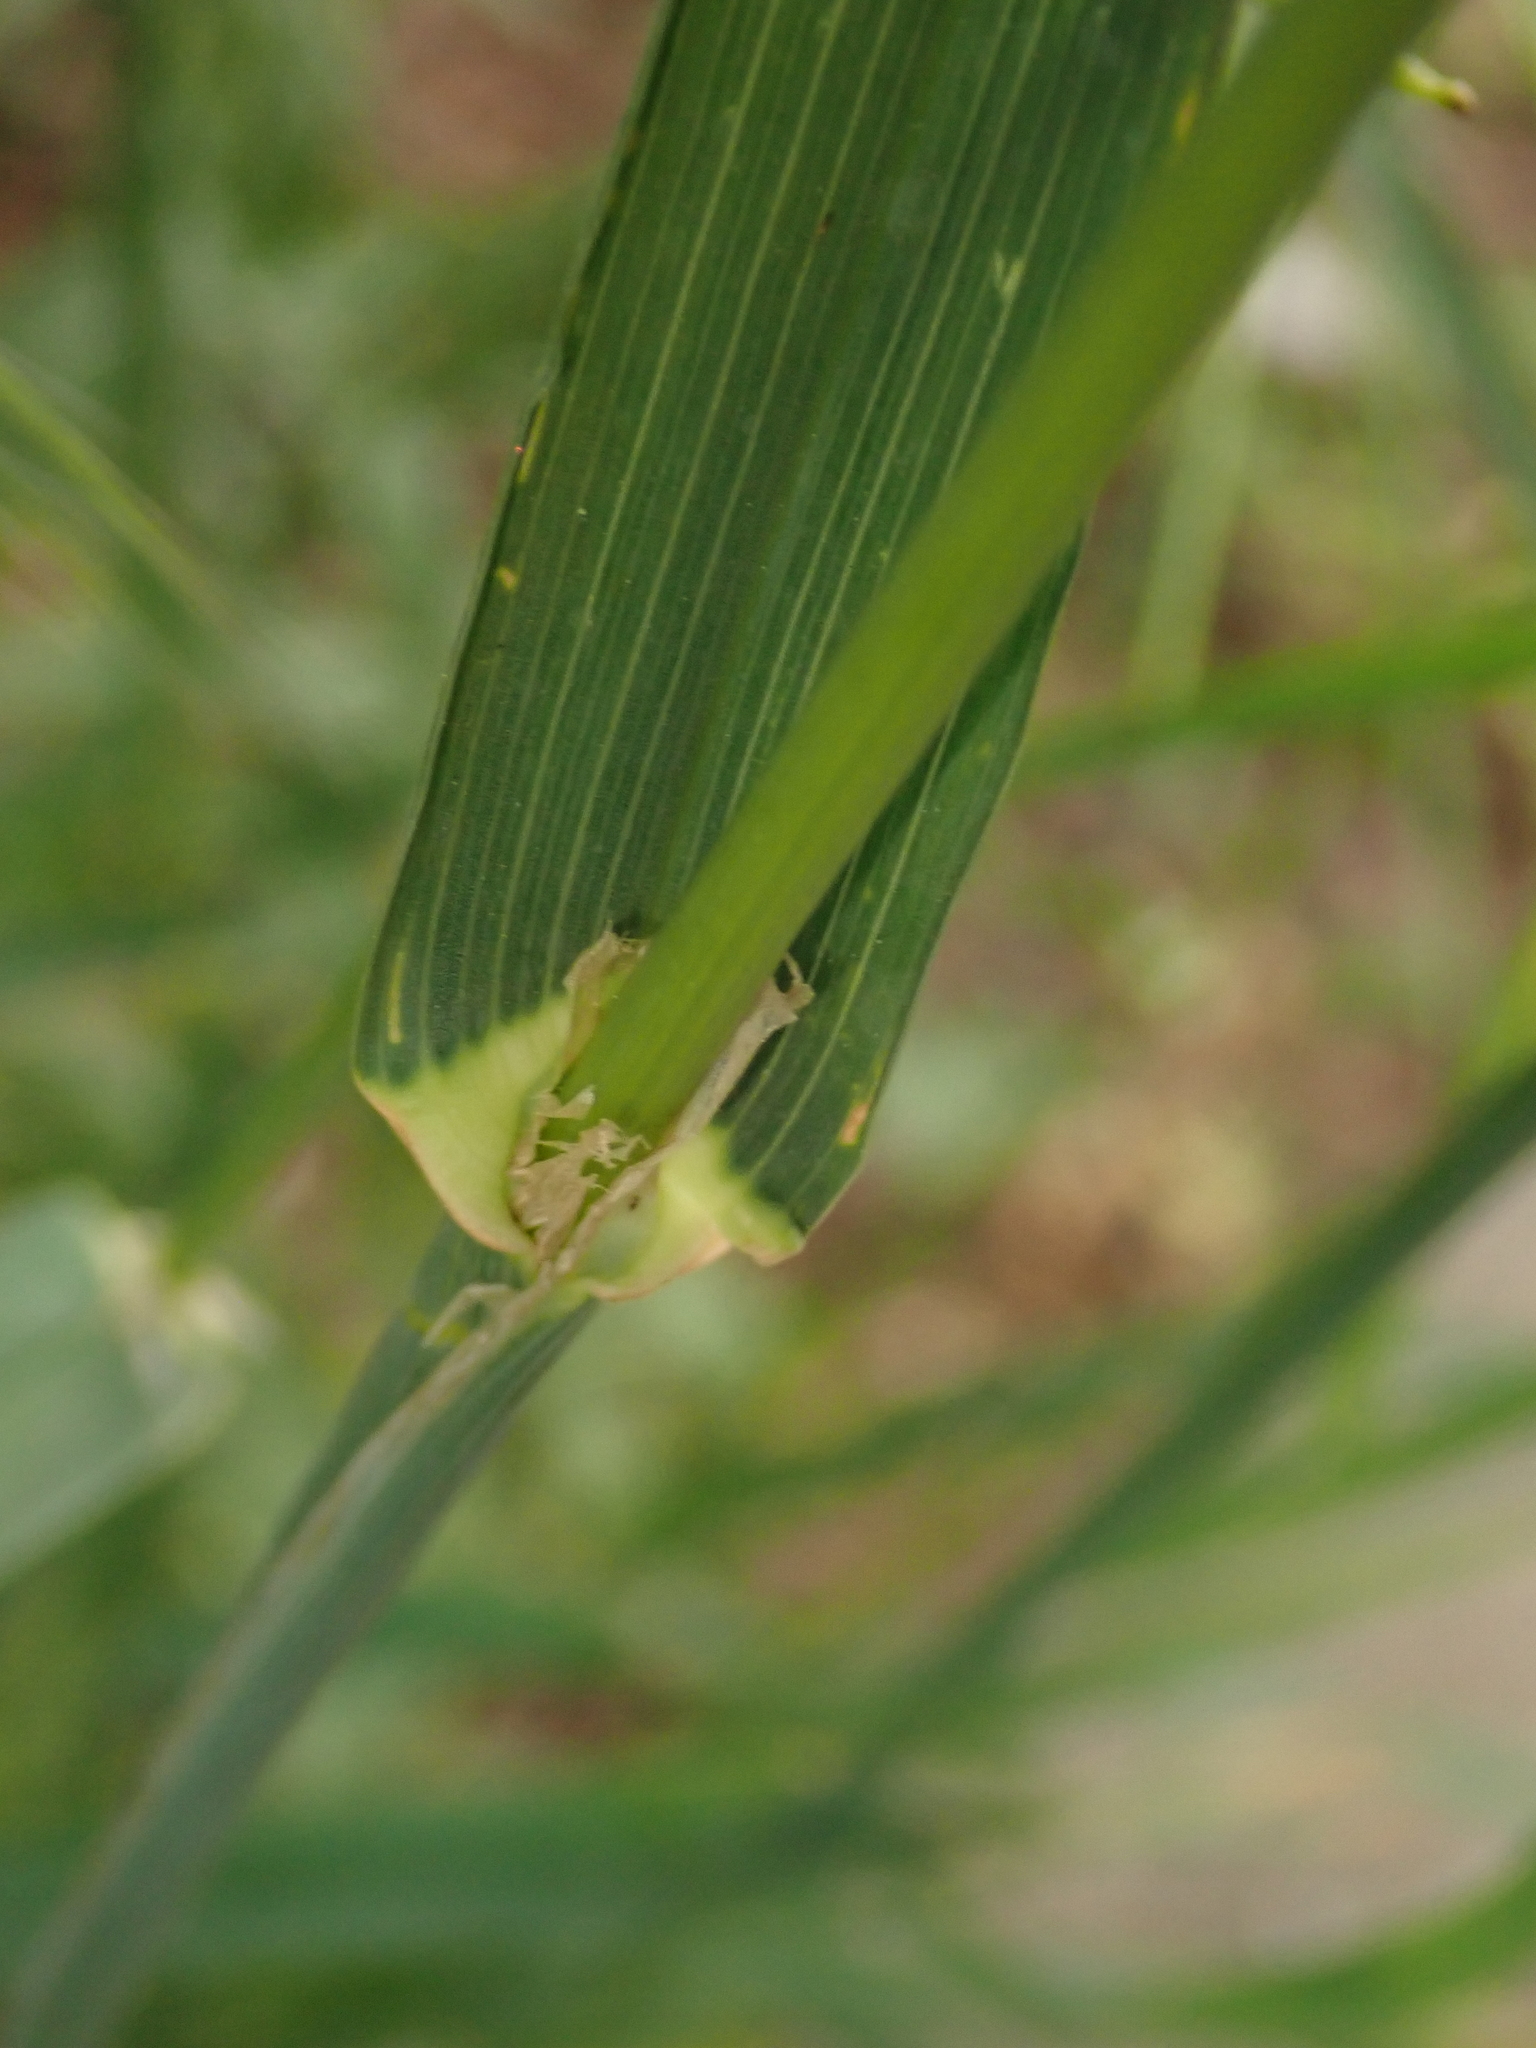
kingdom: Plantae
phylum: Tracheophyta
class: Liliopsida
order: Poales
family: Poaceae
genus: Dactylis
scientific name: Dactylis glomerata
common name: Orchardgrass
